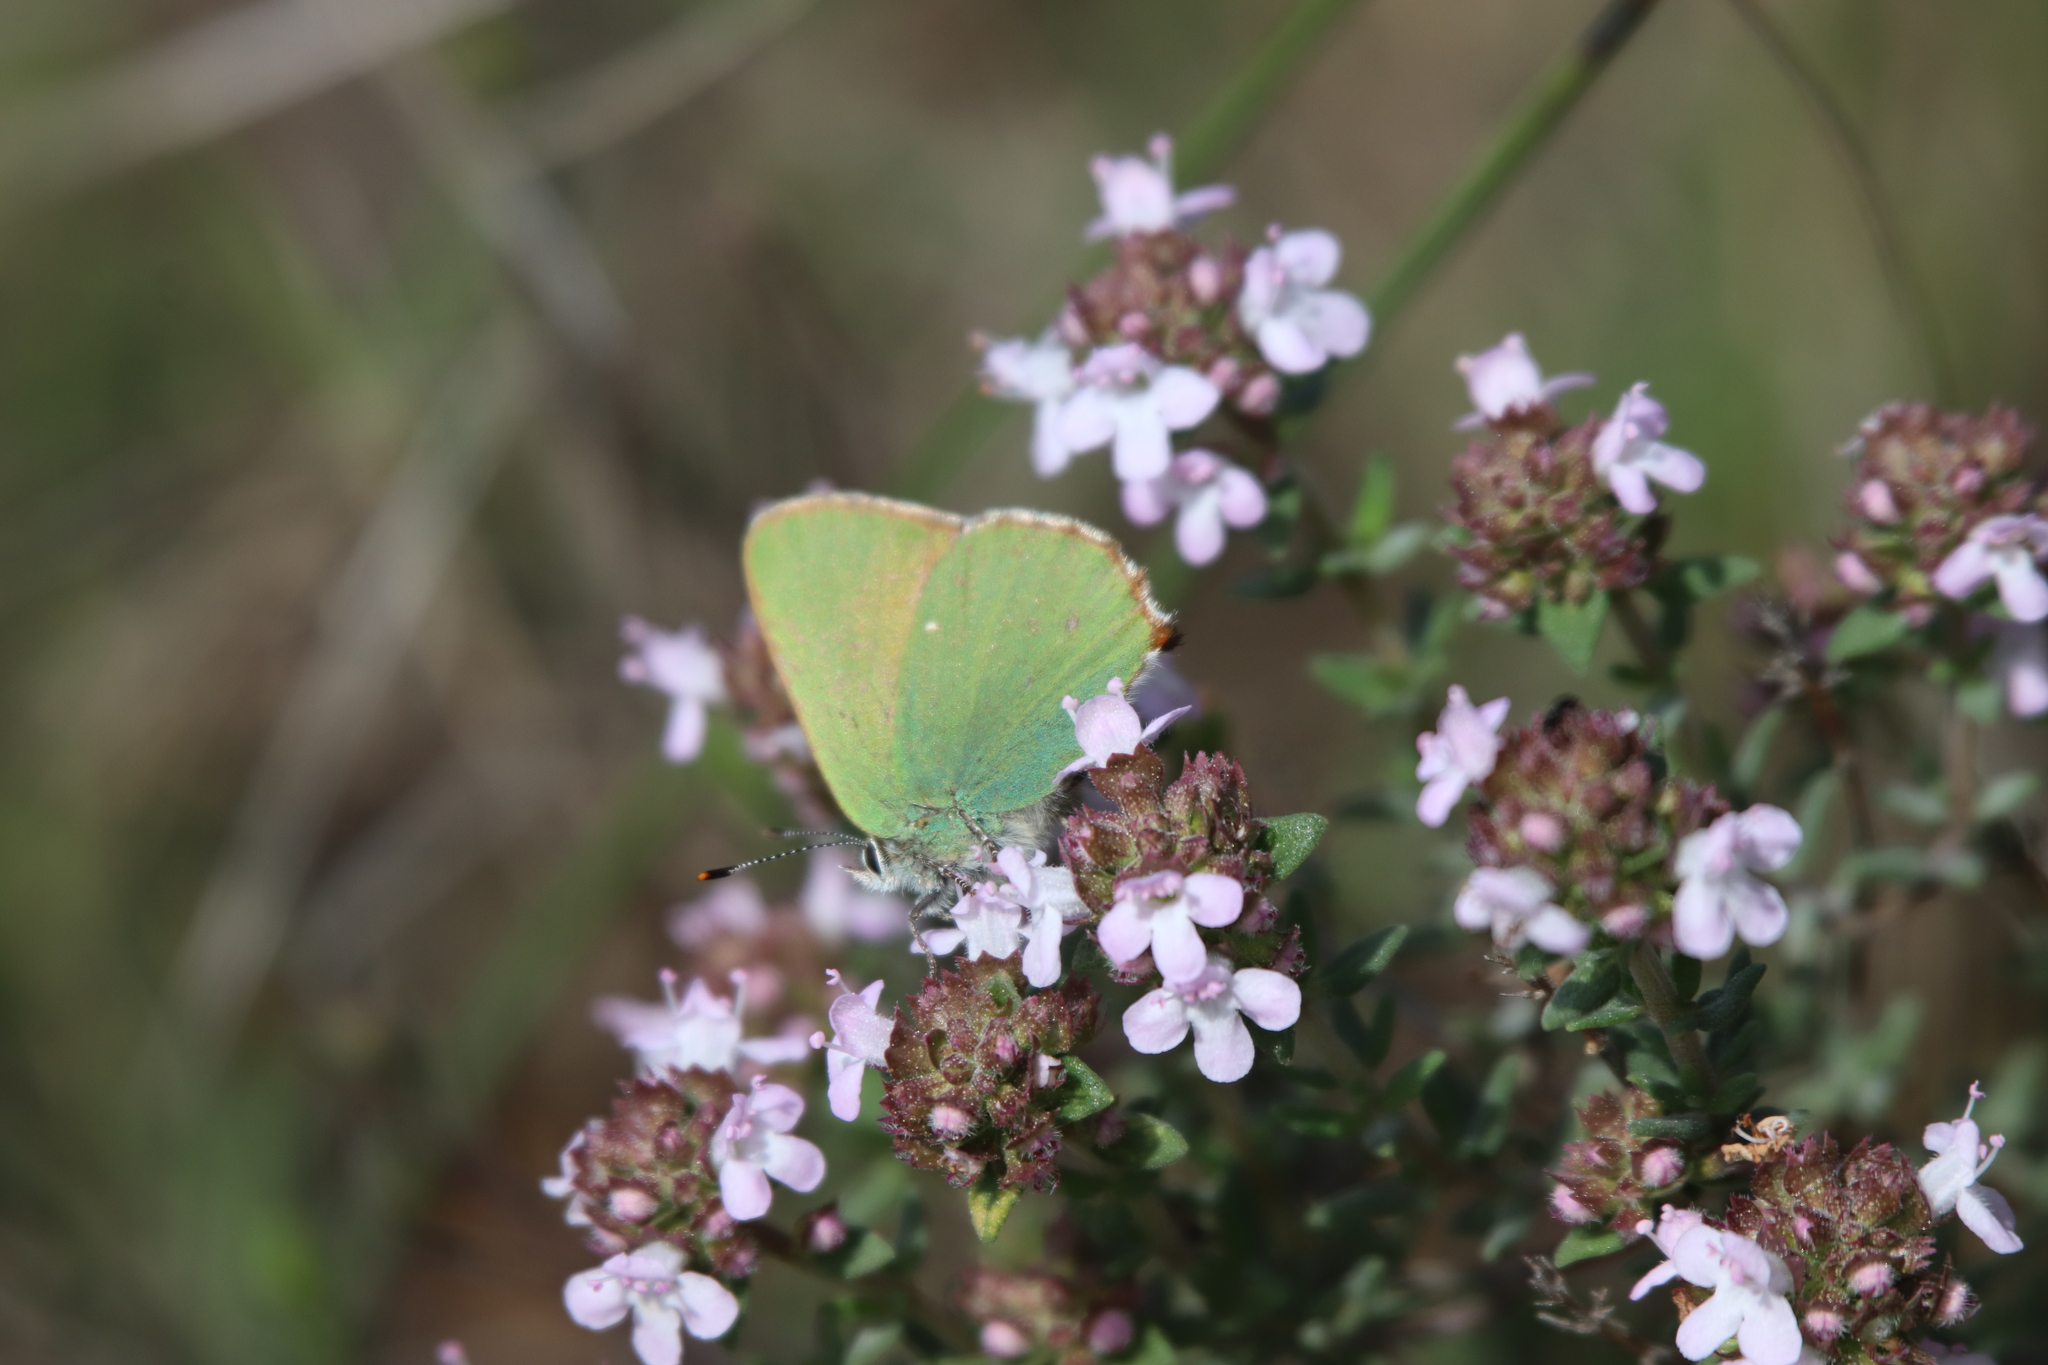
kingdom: Animalia
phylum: Arthropoda
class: Insecta
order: Lepidoptera
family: Lycaenidae
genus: Callophrys
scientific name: Callophrys rubi
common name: Green hairstreak
